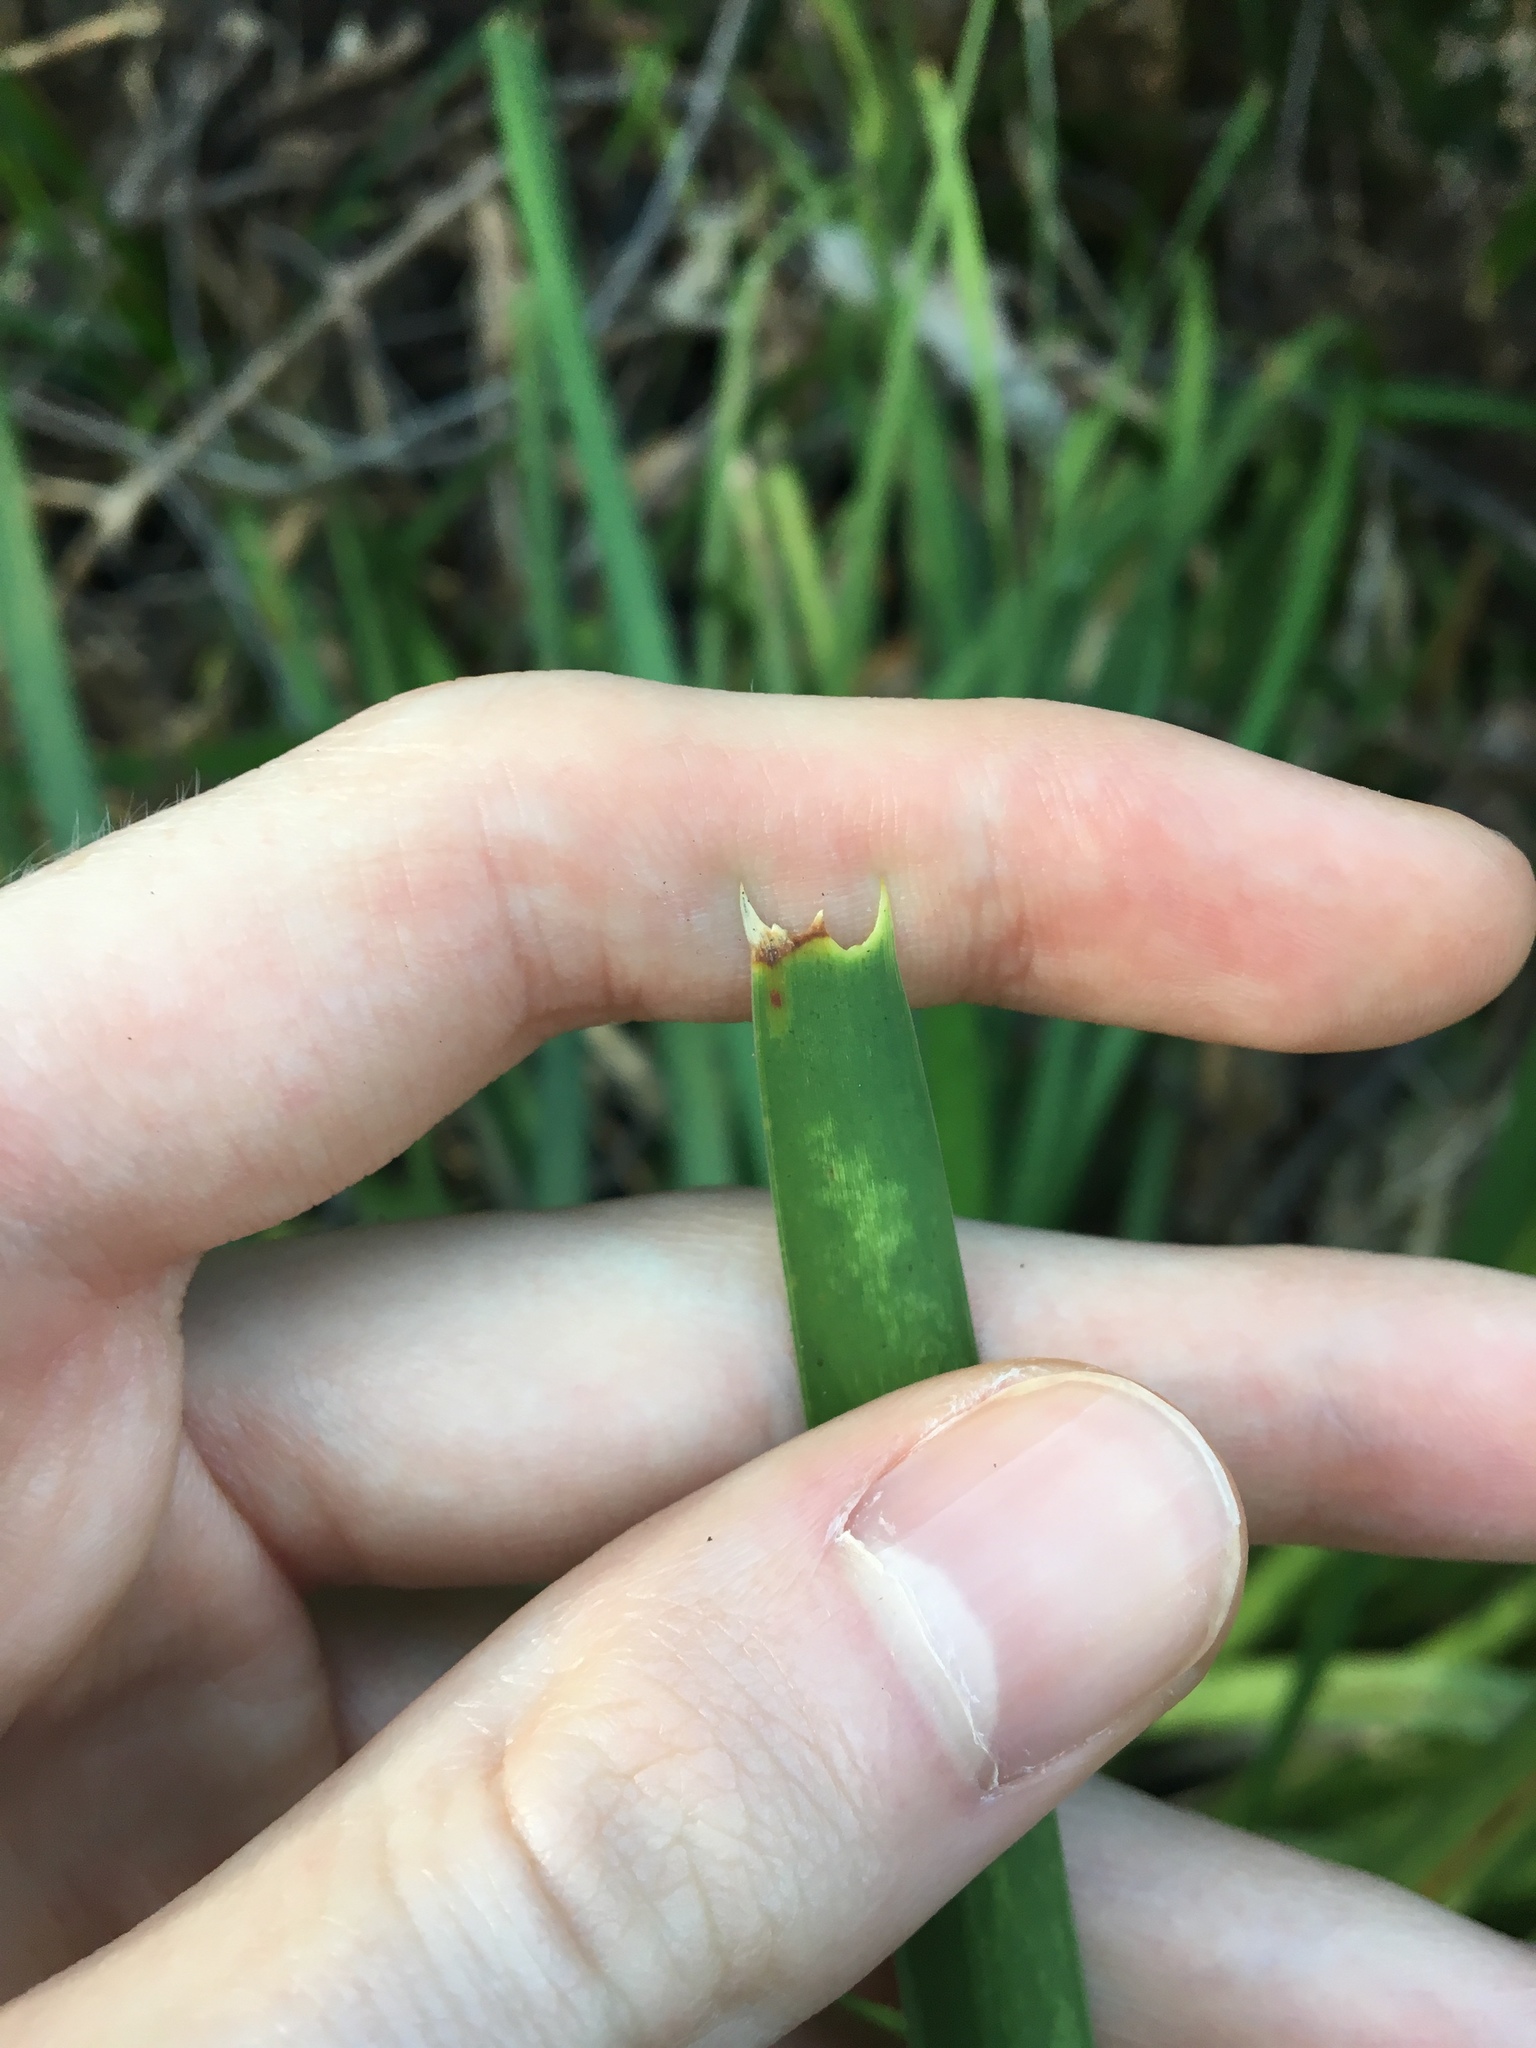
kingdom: Plantae
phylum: Tracheophyta
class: Liliopsida
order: Asparagales
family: Asparagaceae
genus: Lomandra
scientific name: Lomandra longifolia
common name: Longleaf mat-rush
